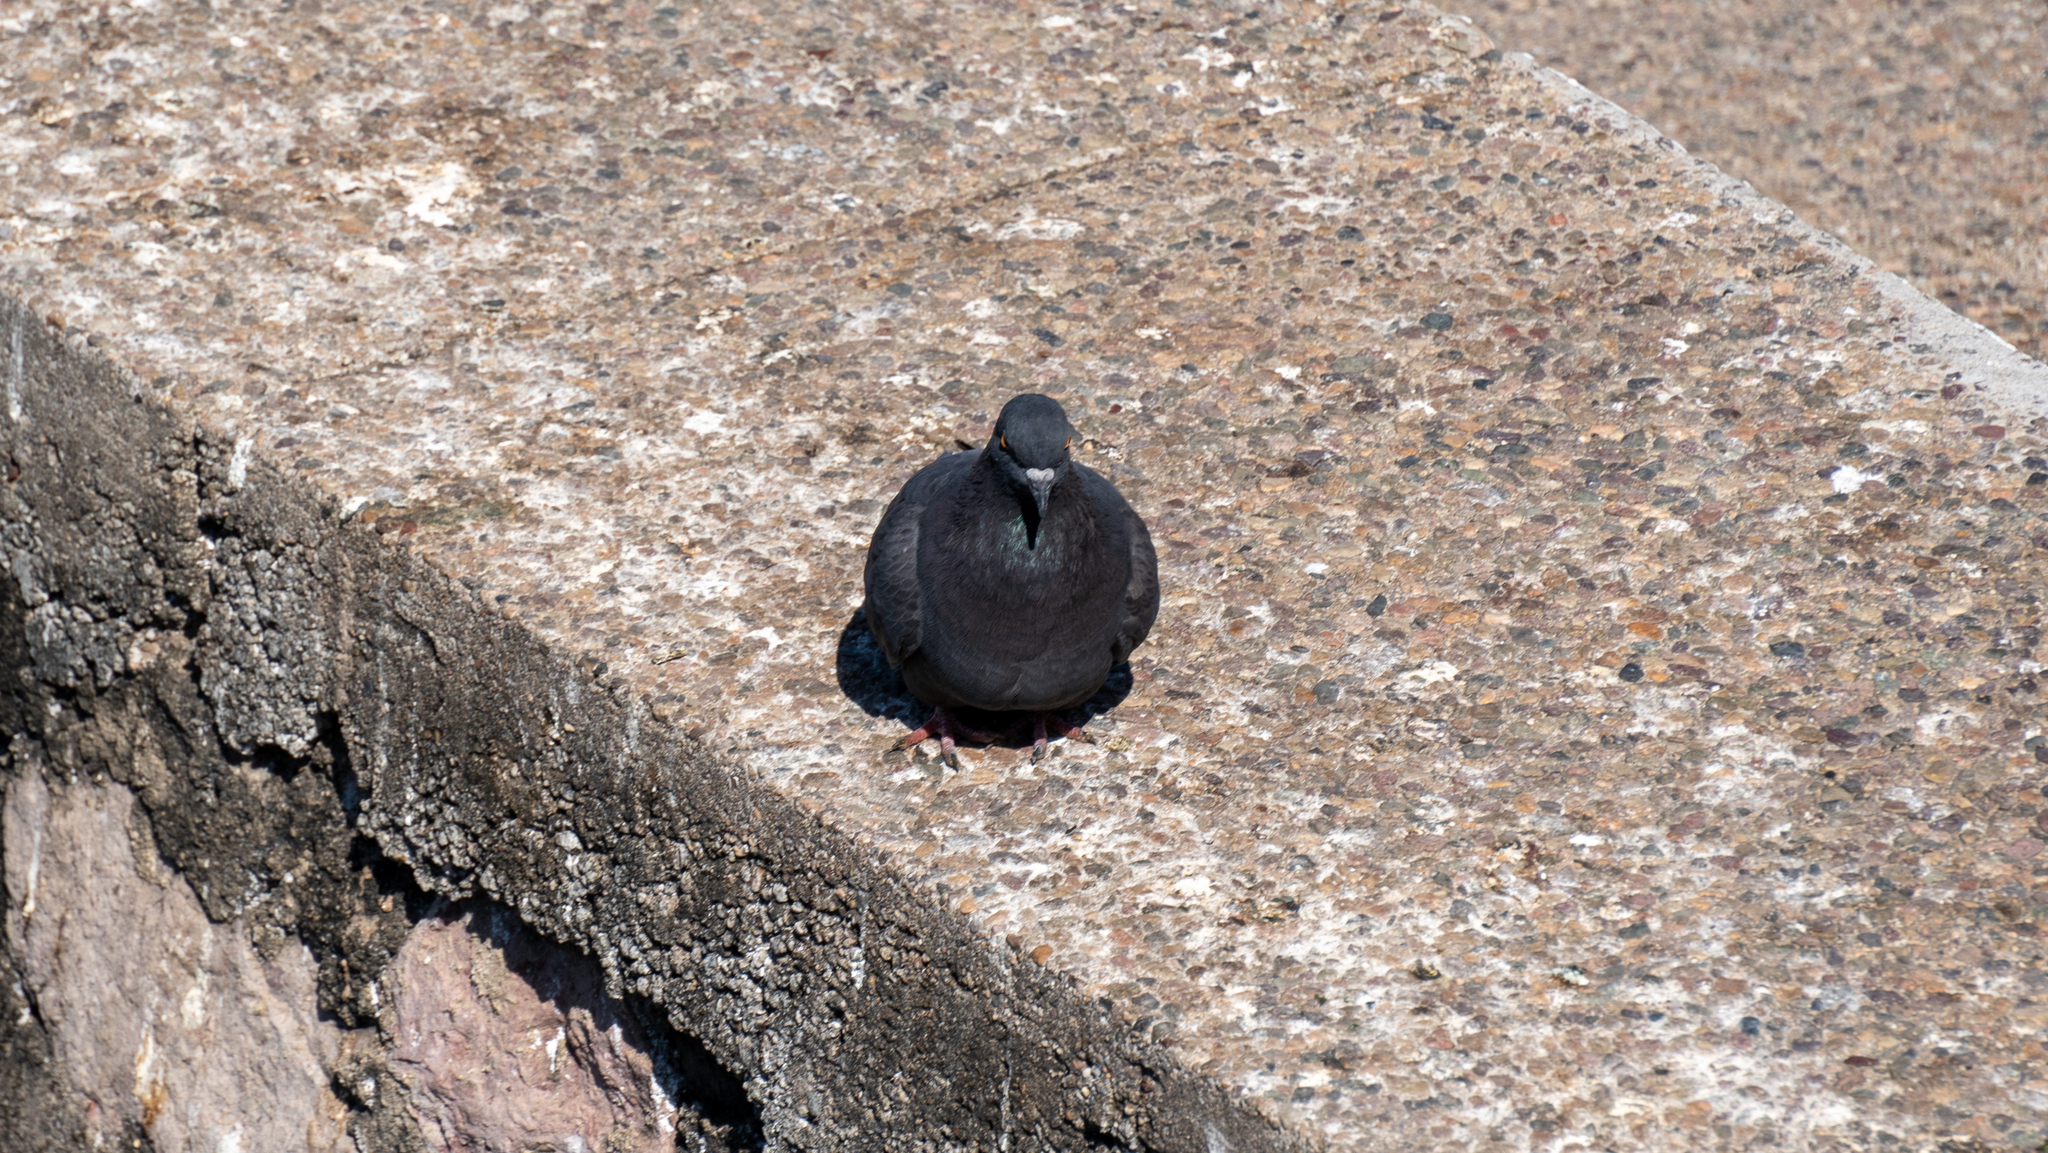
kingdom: Animalia
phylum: Chordata
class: Aves
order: Columbiformes
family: Columbidae
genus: Columba
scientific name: Columba livia
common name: Rock pigeon
